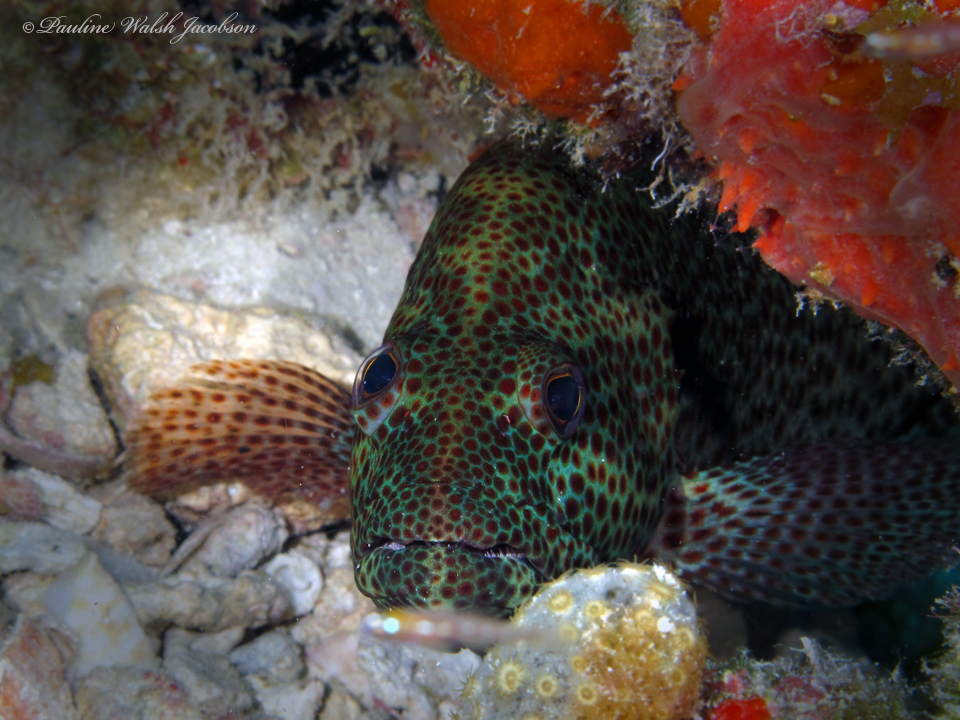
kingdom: Animalia
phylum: Chordata
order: Perciformes
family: Serranidae
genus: Cephalopholis
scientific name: Cephalopholis cruentata
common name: Graysby
